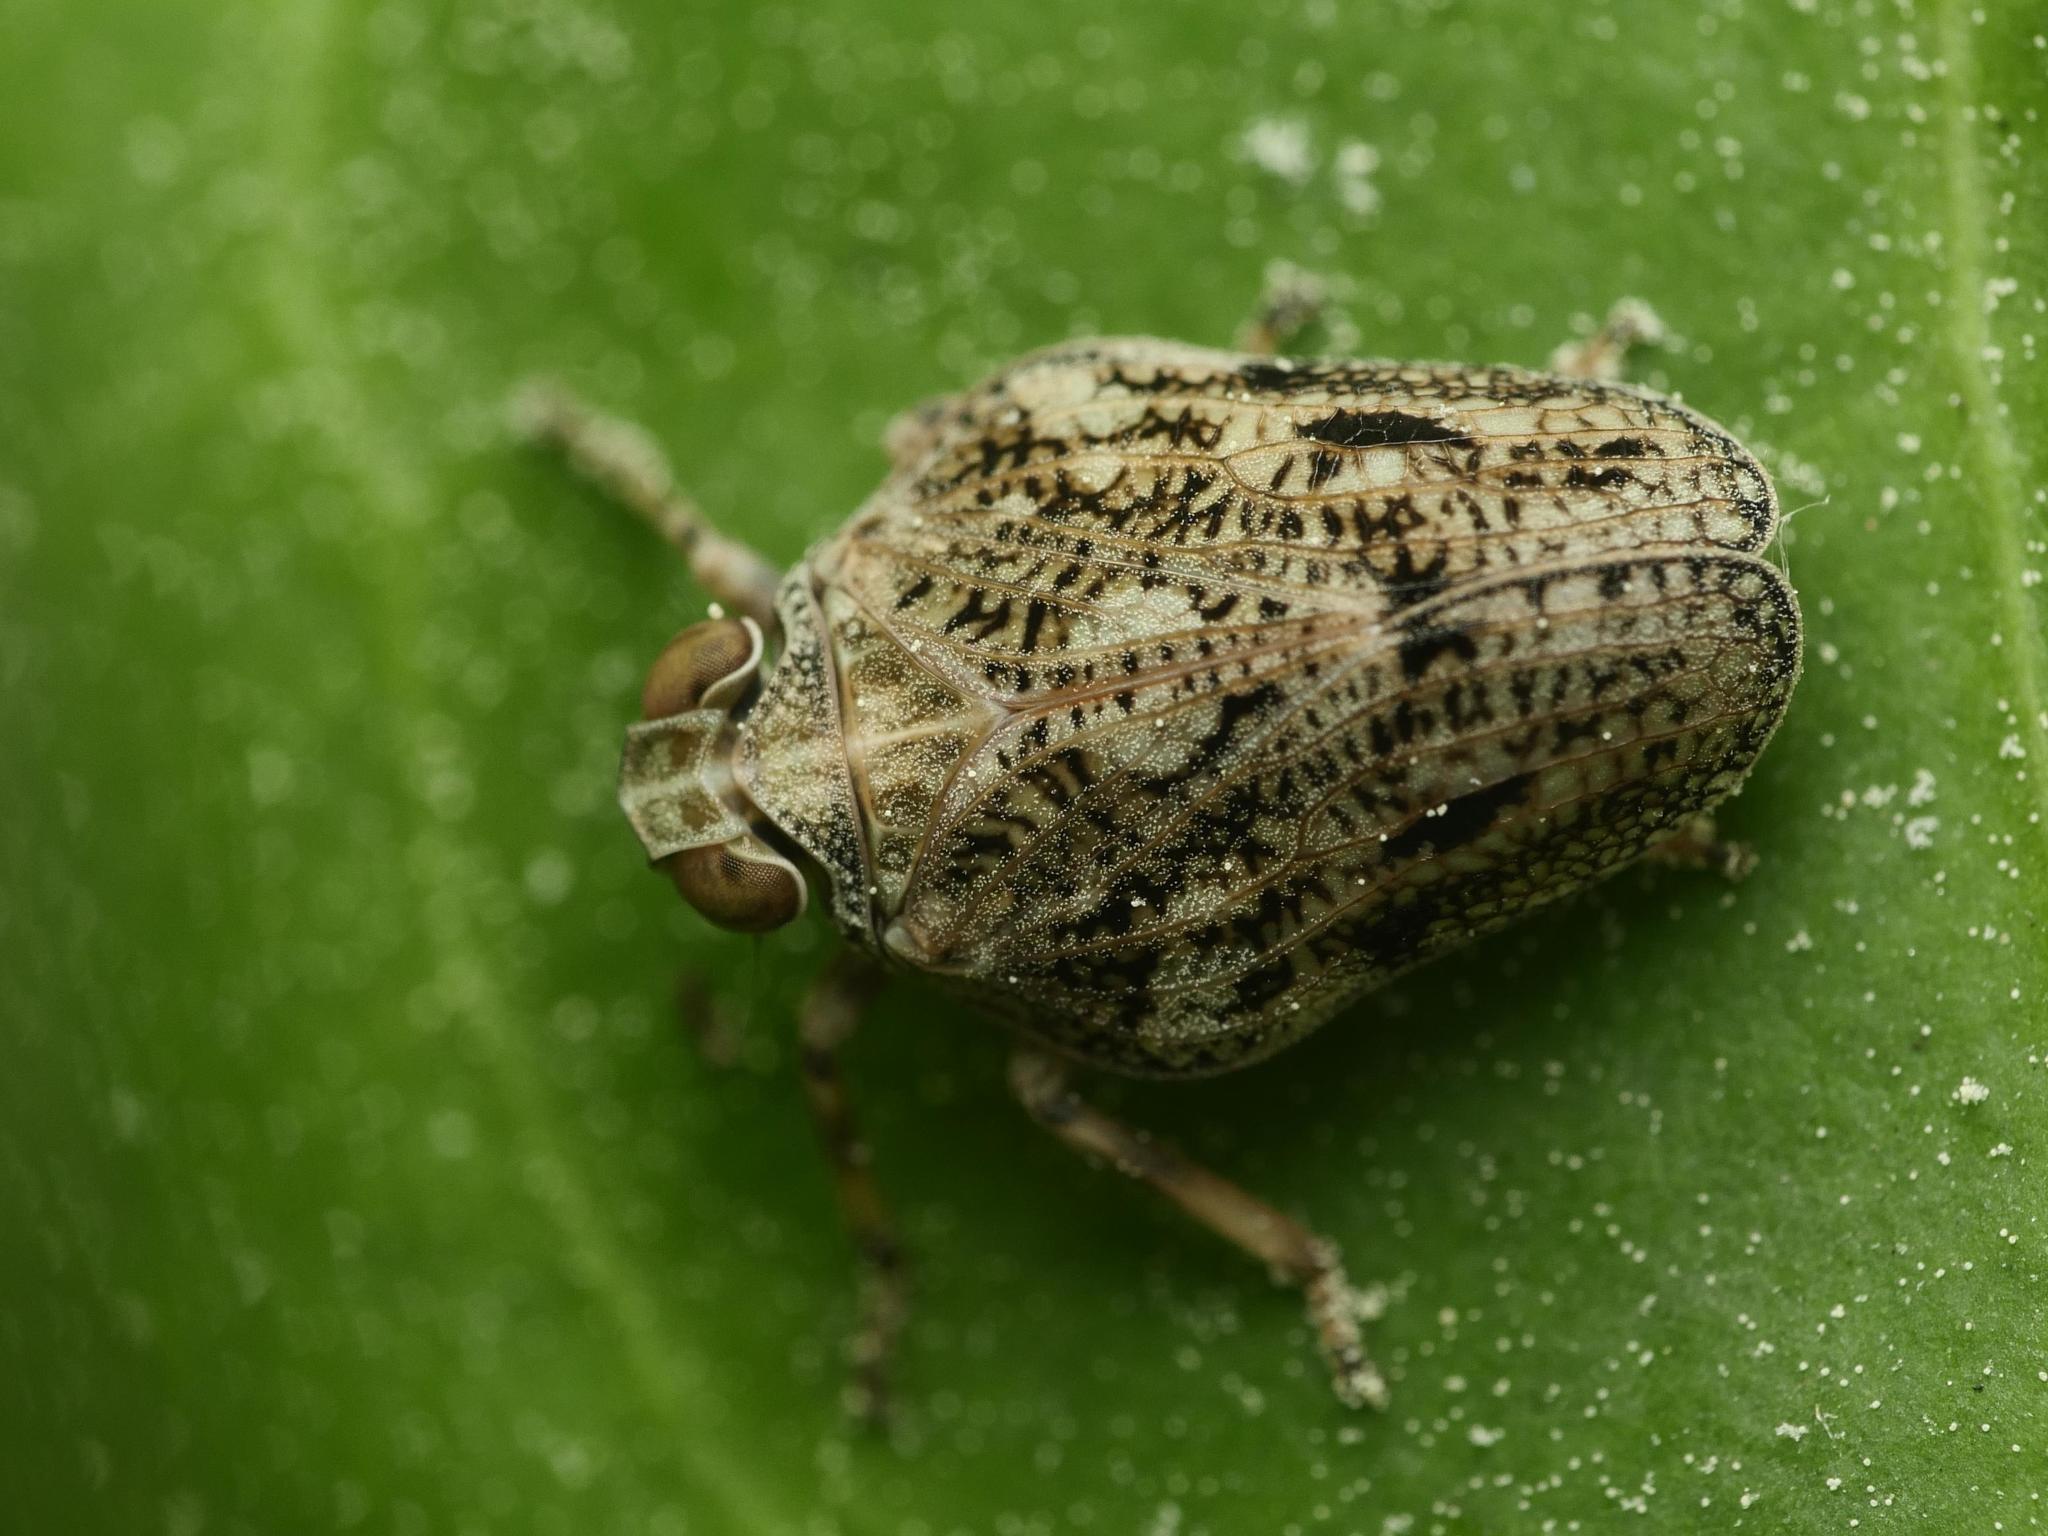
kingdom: Animalia
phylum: Arthropoda
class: Insecta
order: Hemiptera
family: Issidae
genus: Issus
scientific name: Issus coleoptratus
